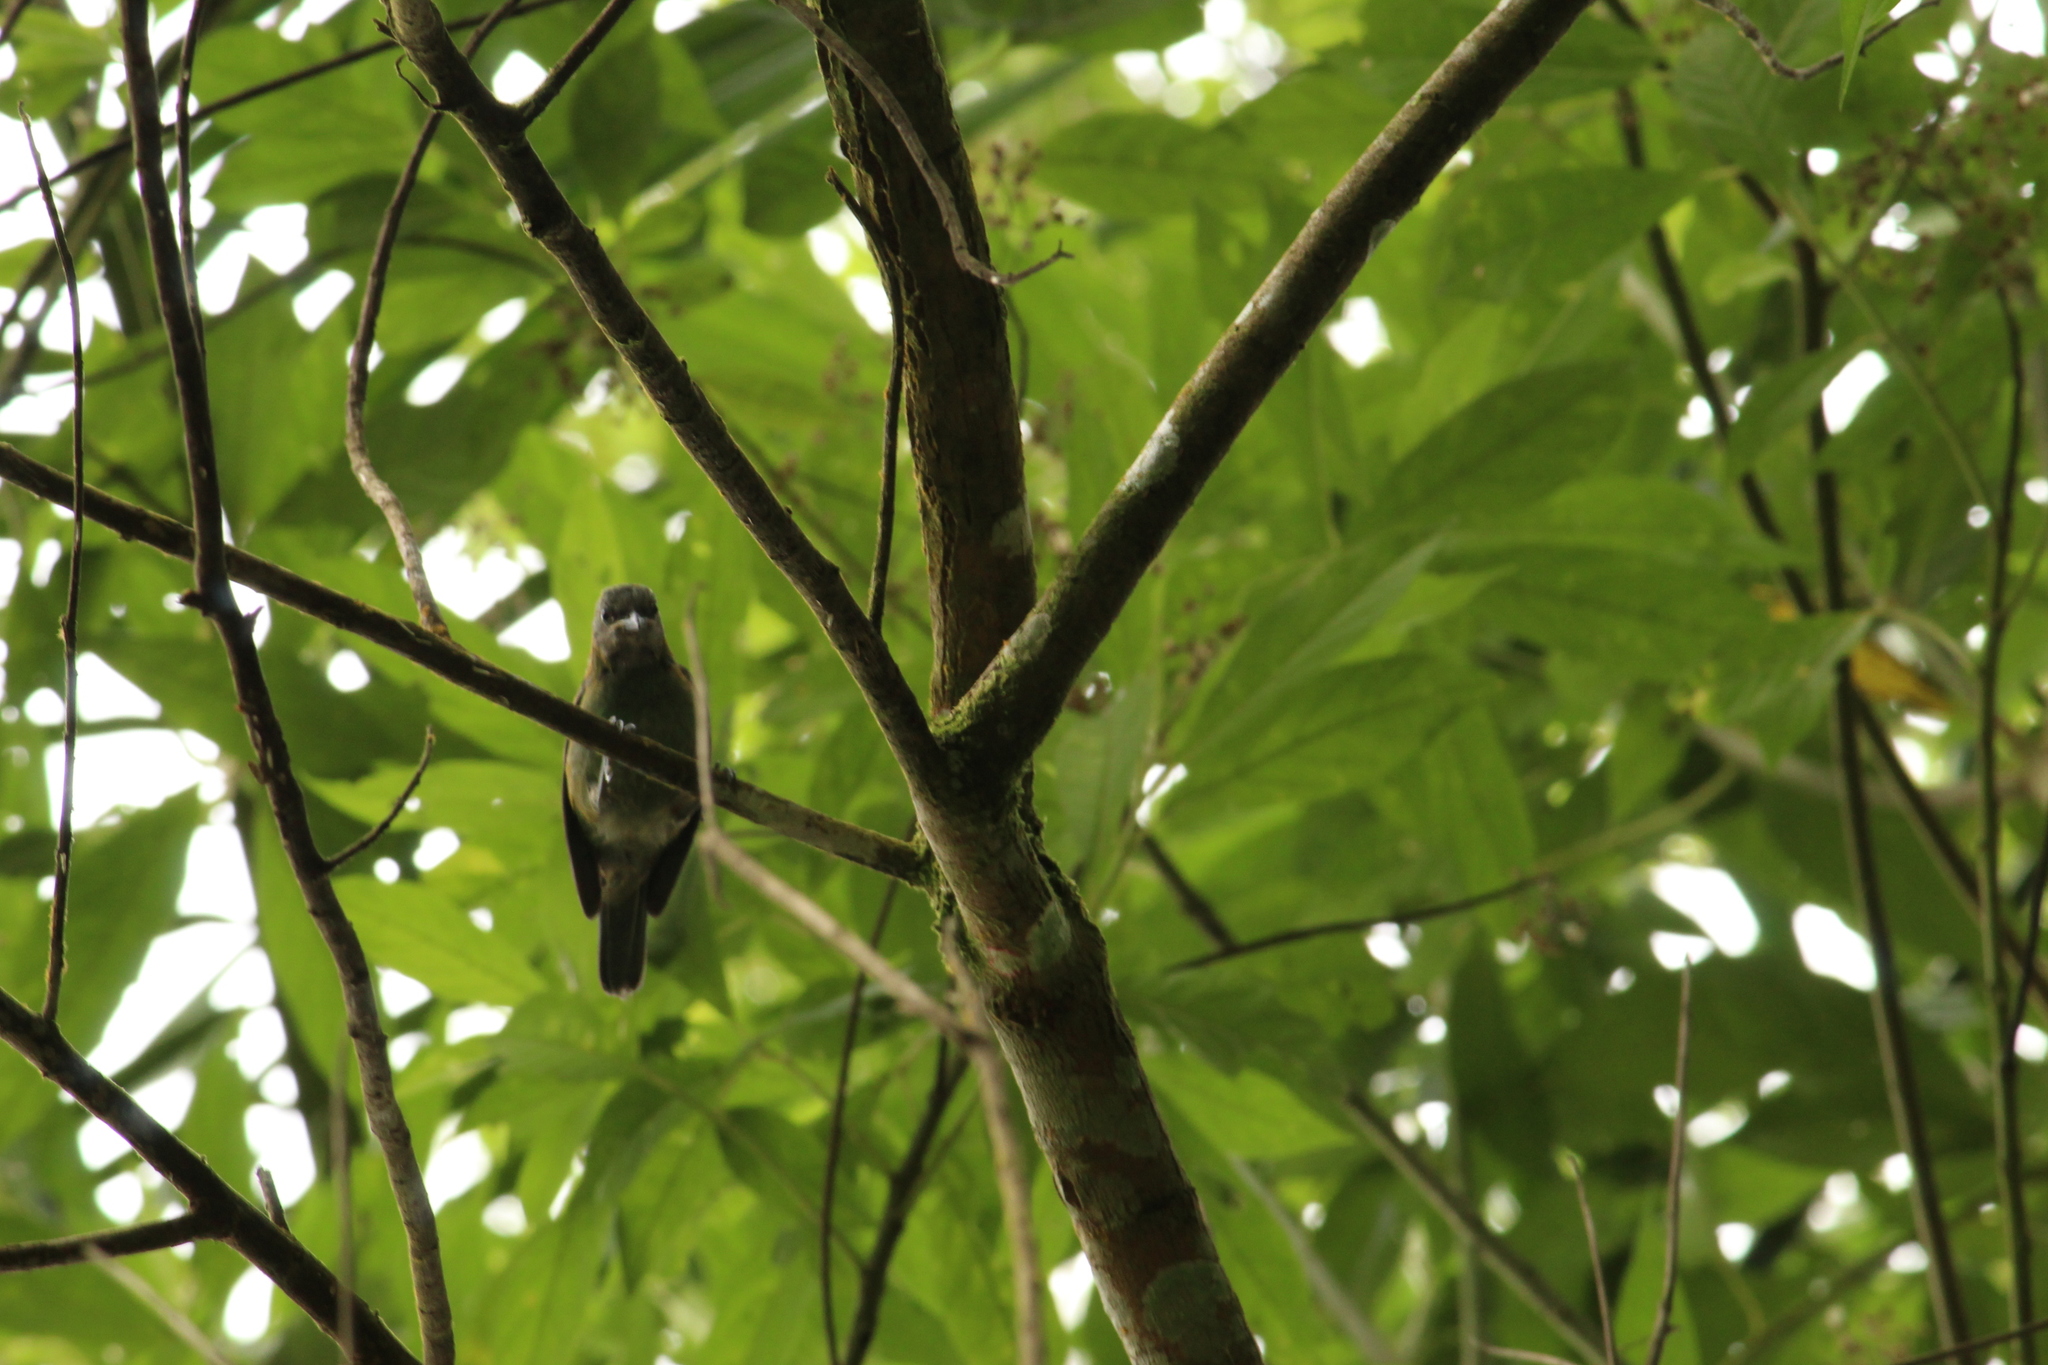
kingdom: Animalia
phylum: Chordata
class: Aves
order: Passeriformes
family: Thraupidae
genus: Tangara
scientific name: Tangara seledon
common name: Green-headed tanager
